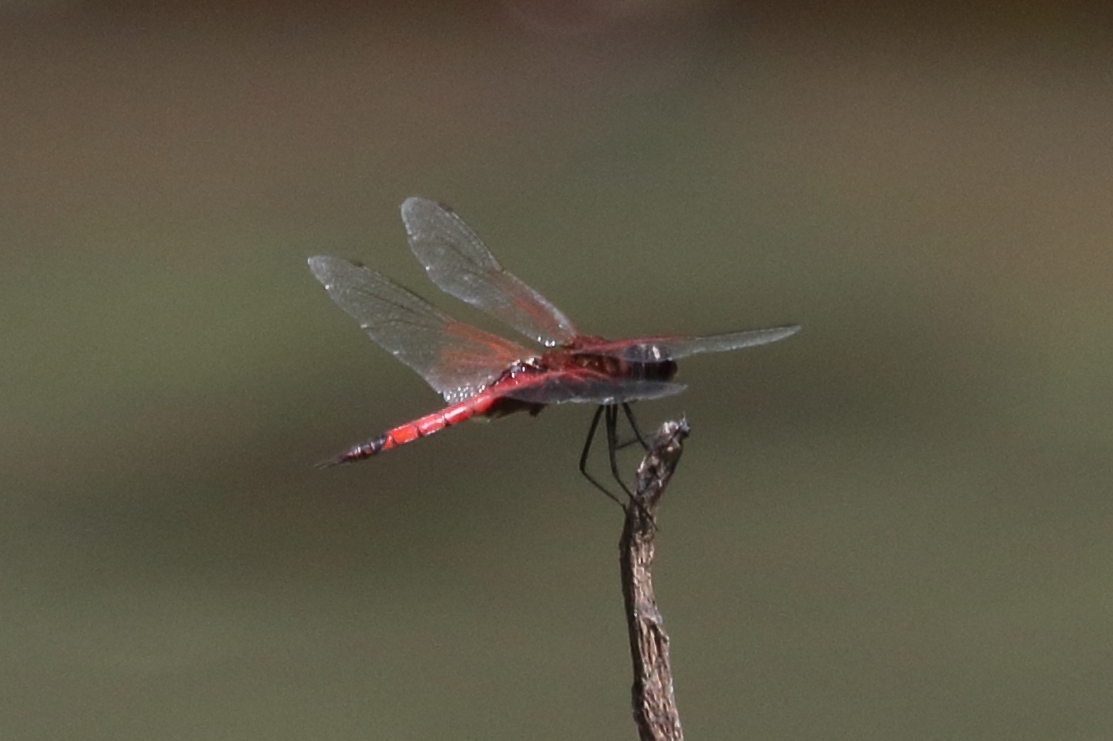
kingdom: Animalia
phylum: Arthropoda
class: Insecta
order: Odonata
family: Libellulidae
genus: Tramea
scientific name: Tramea transmarina
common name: Red glider dragonfly
